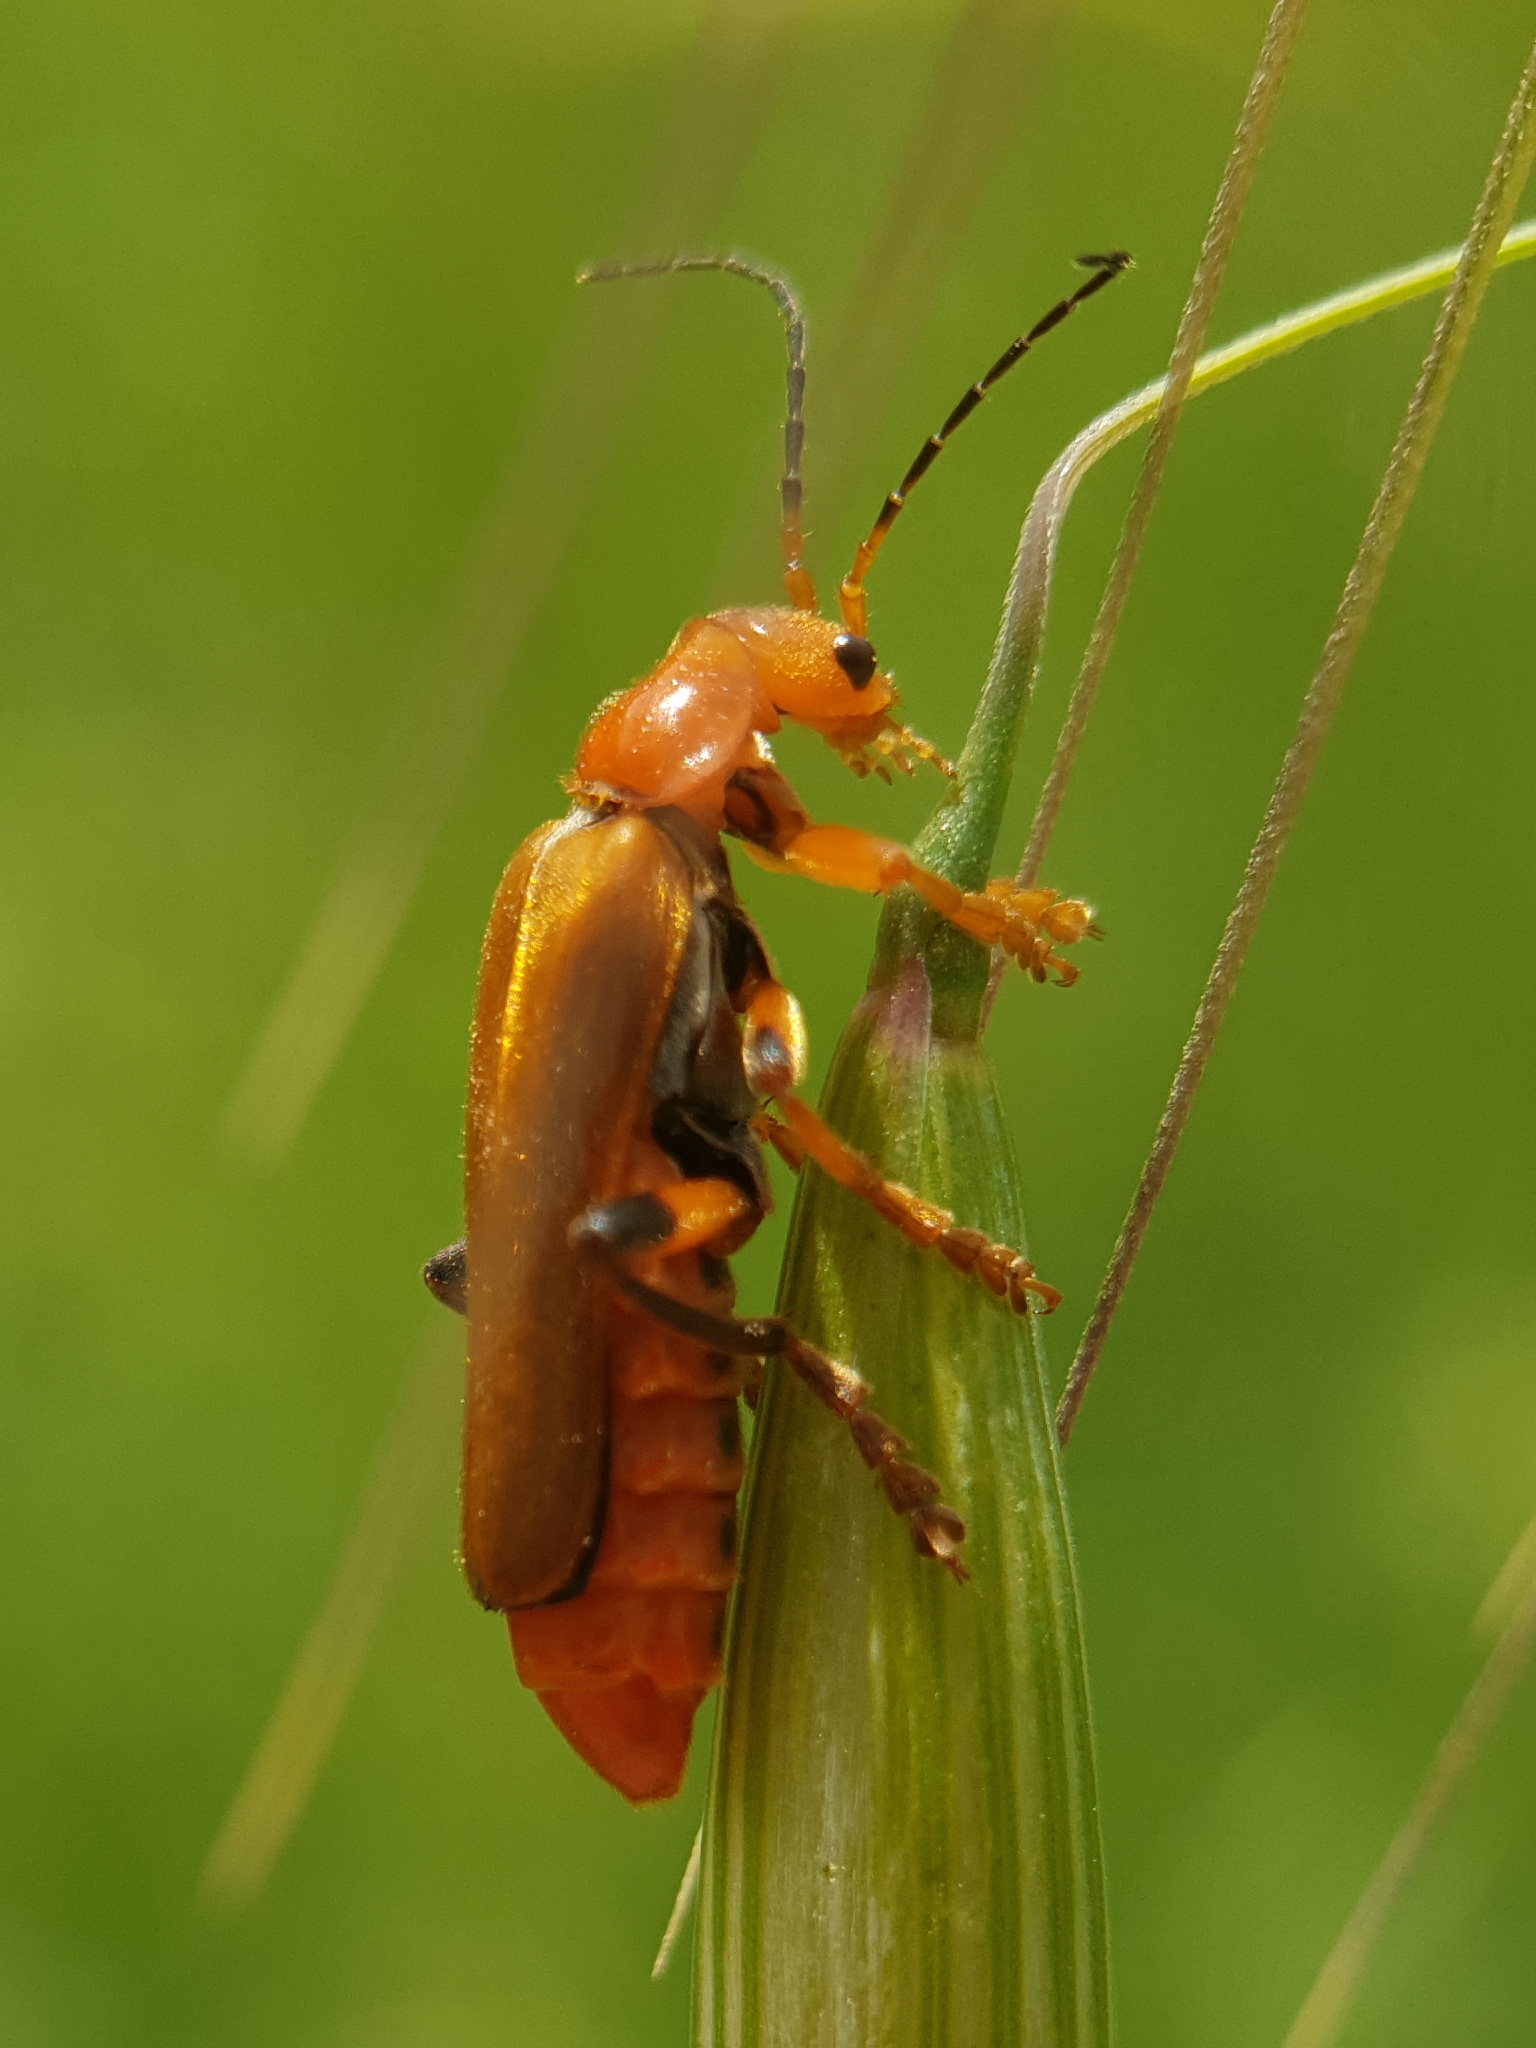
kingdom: Animalia
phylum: Arthropoda
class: Insecta
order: Coleoptera
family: Cantharidae
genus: Cantharis
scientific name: Cantharis melaspoides
